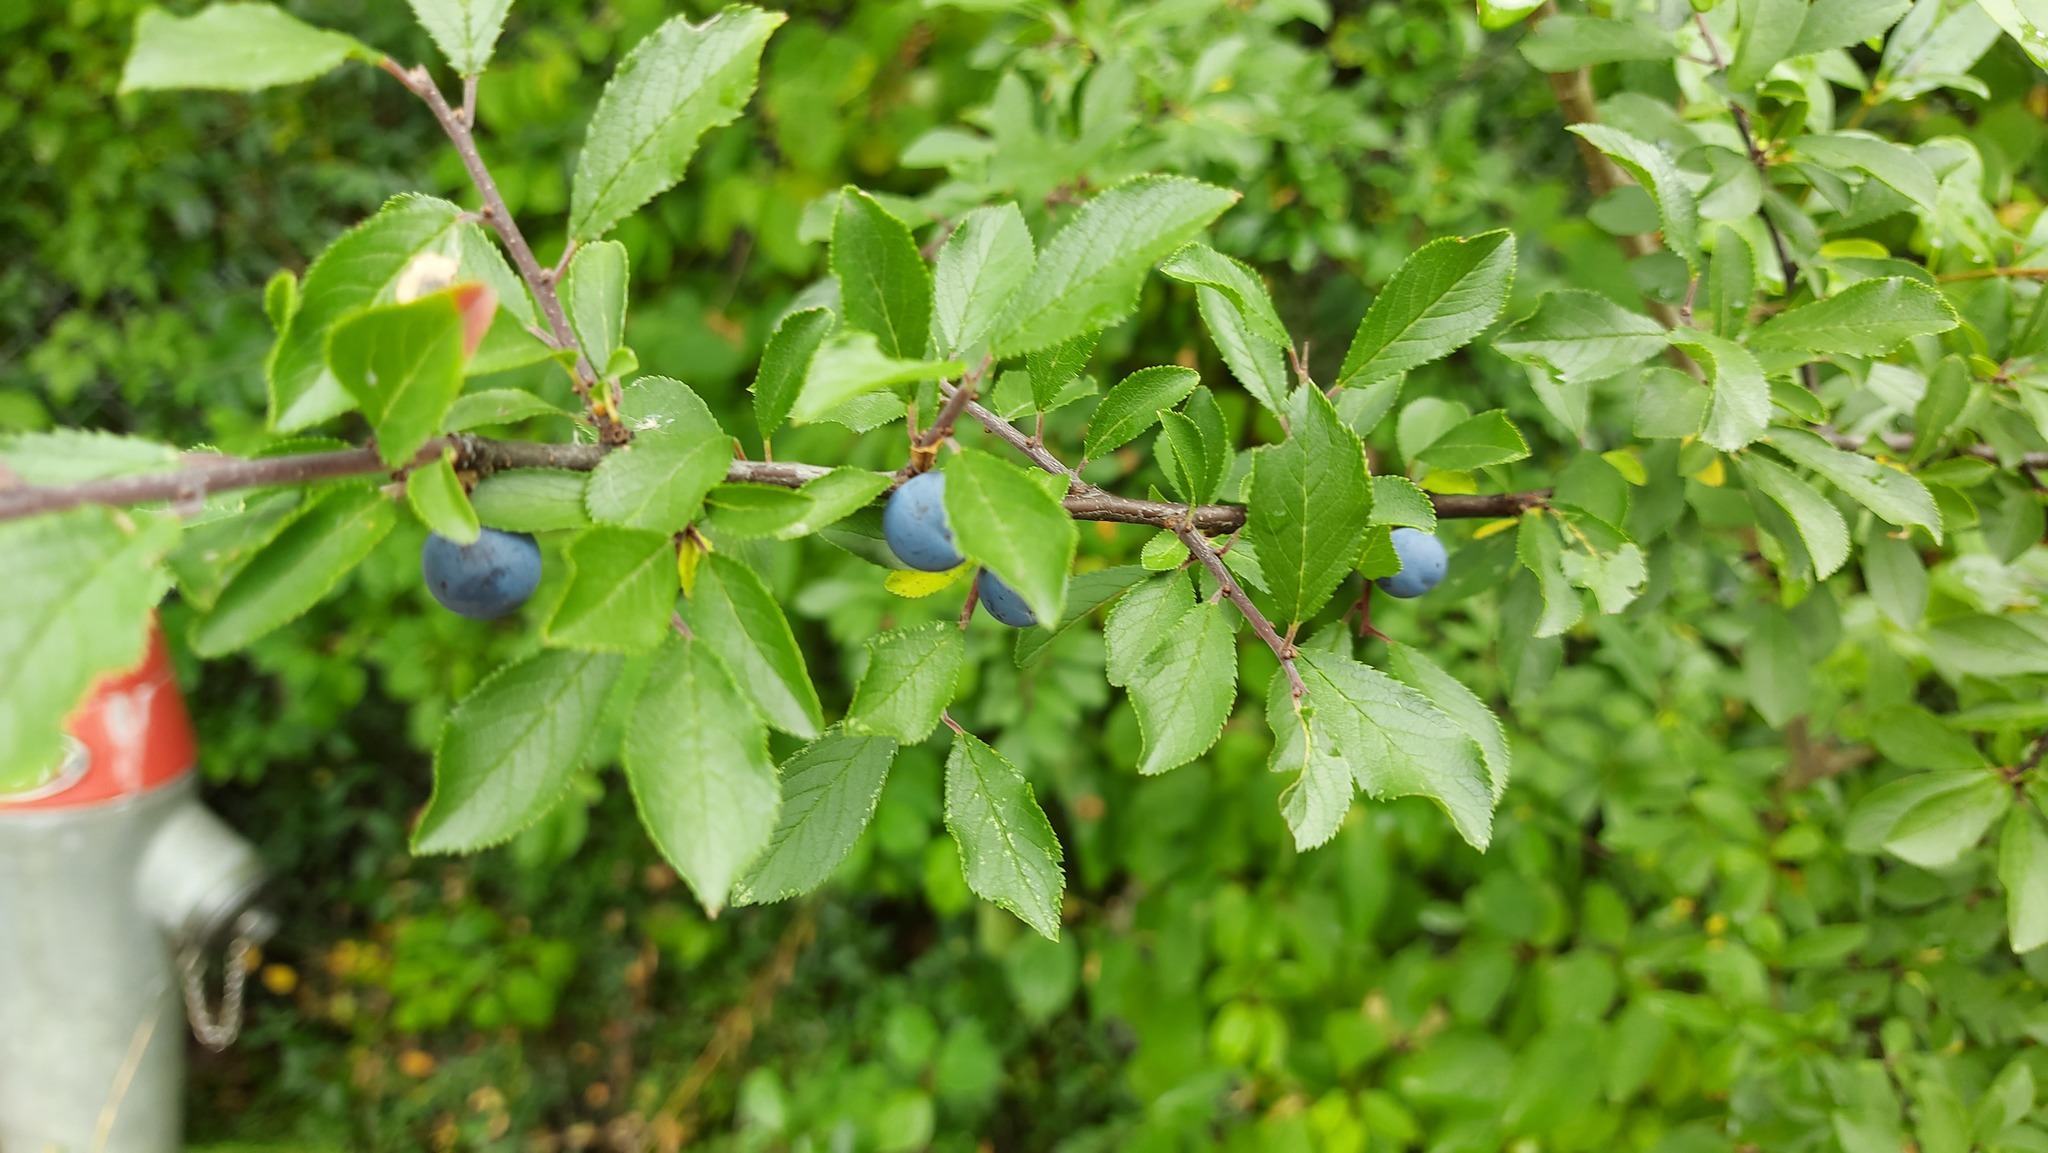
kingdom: Plantae
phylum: Tracheophyta
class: Magnoliopsida
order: Rosales
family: Rosaceae
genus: Prunus
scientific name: Prunus spinosa
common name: Blackthorn
